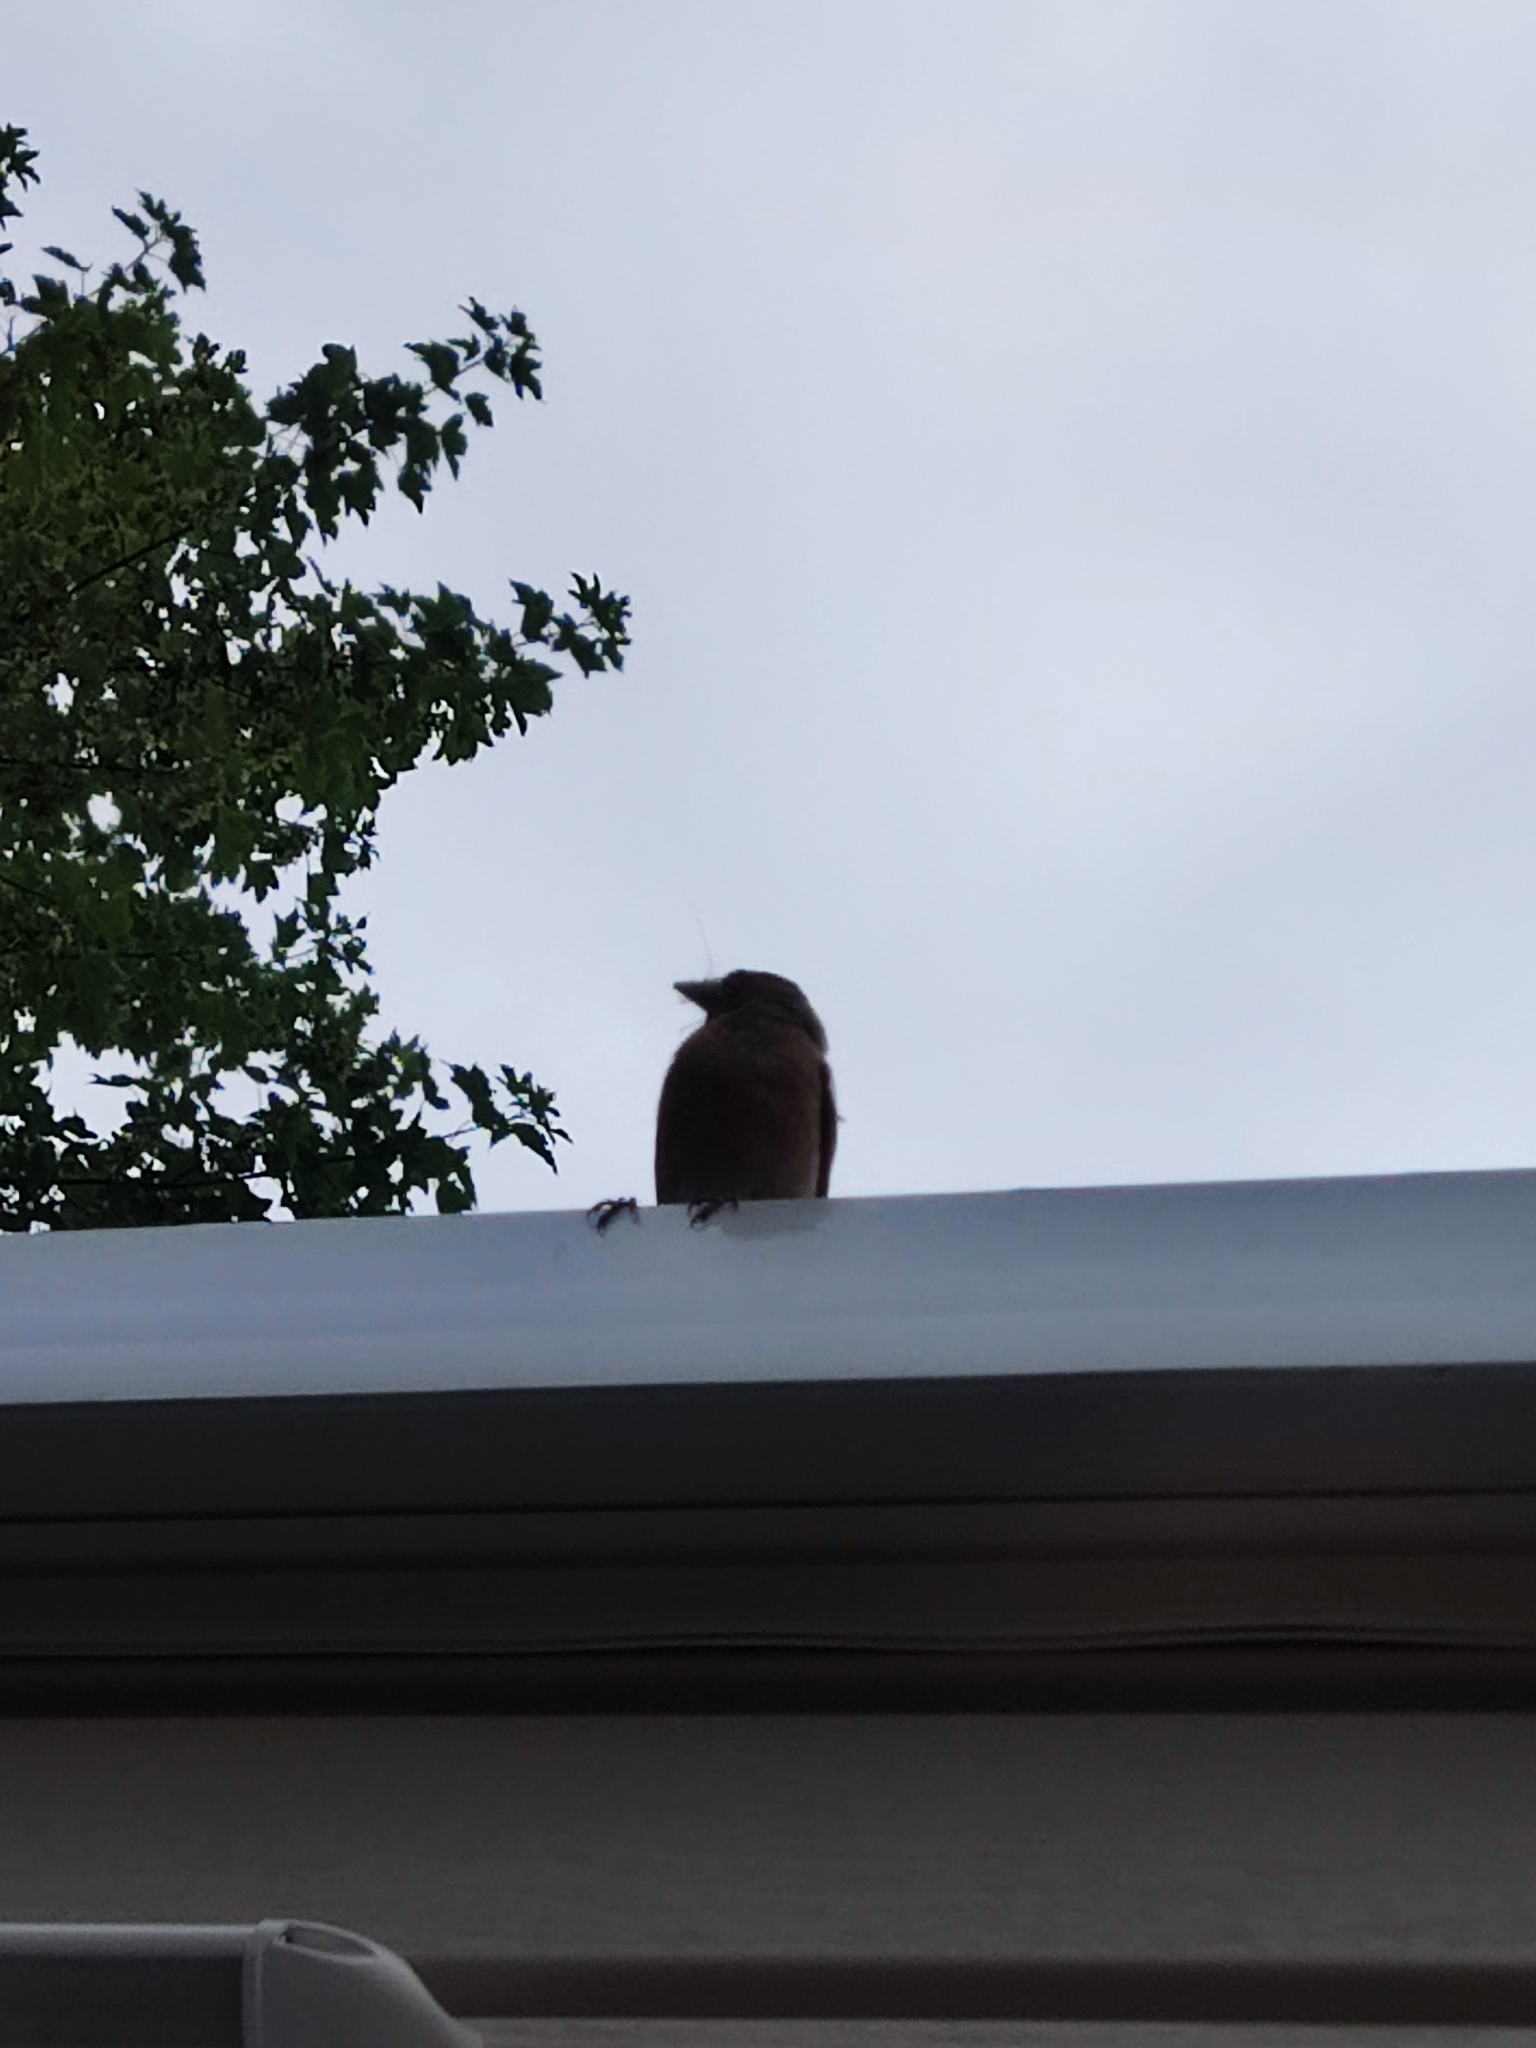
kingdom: Animalia
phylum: Chordata
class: Aves
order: Passeriformes
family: Fringillidae
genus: Fringilla
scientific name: Fringilla coelebs
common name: Common chaffinch
